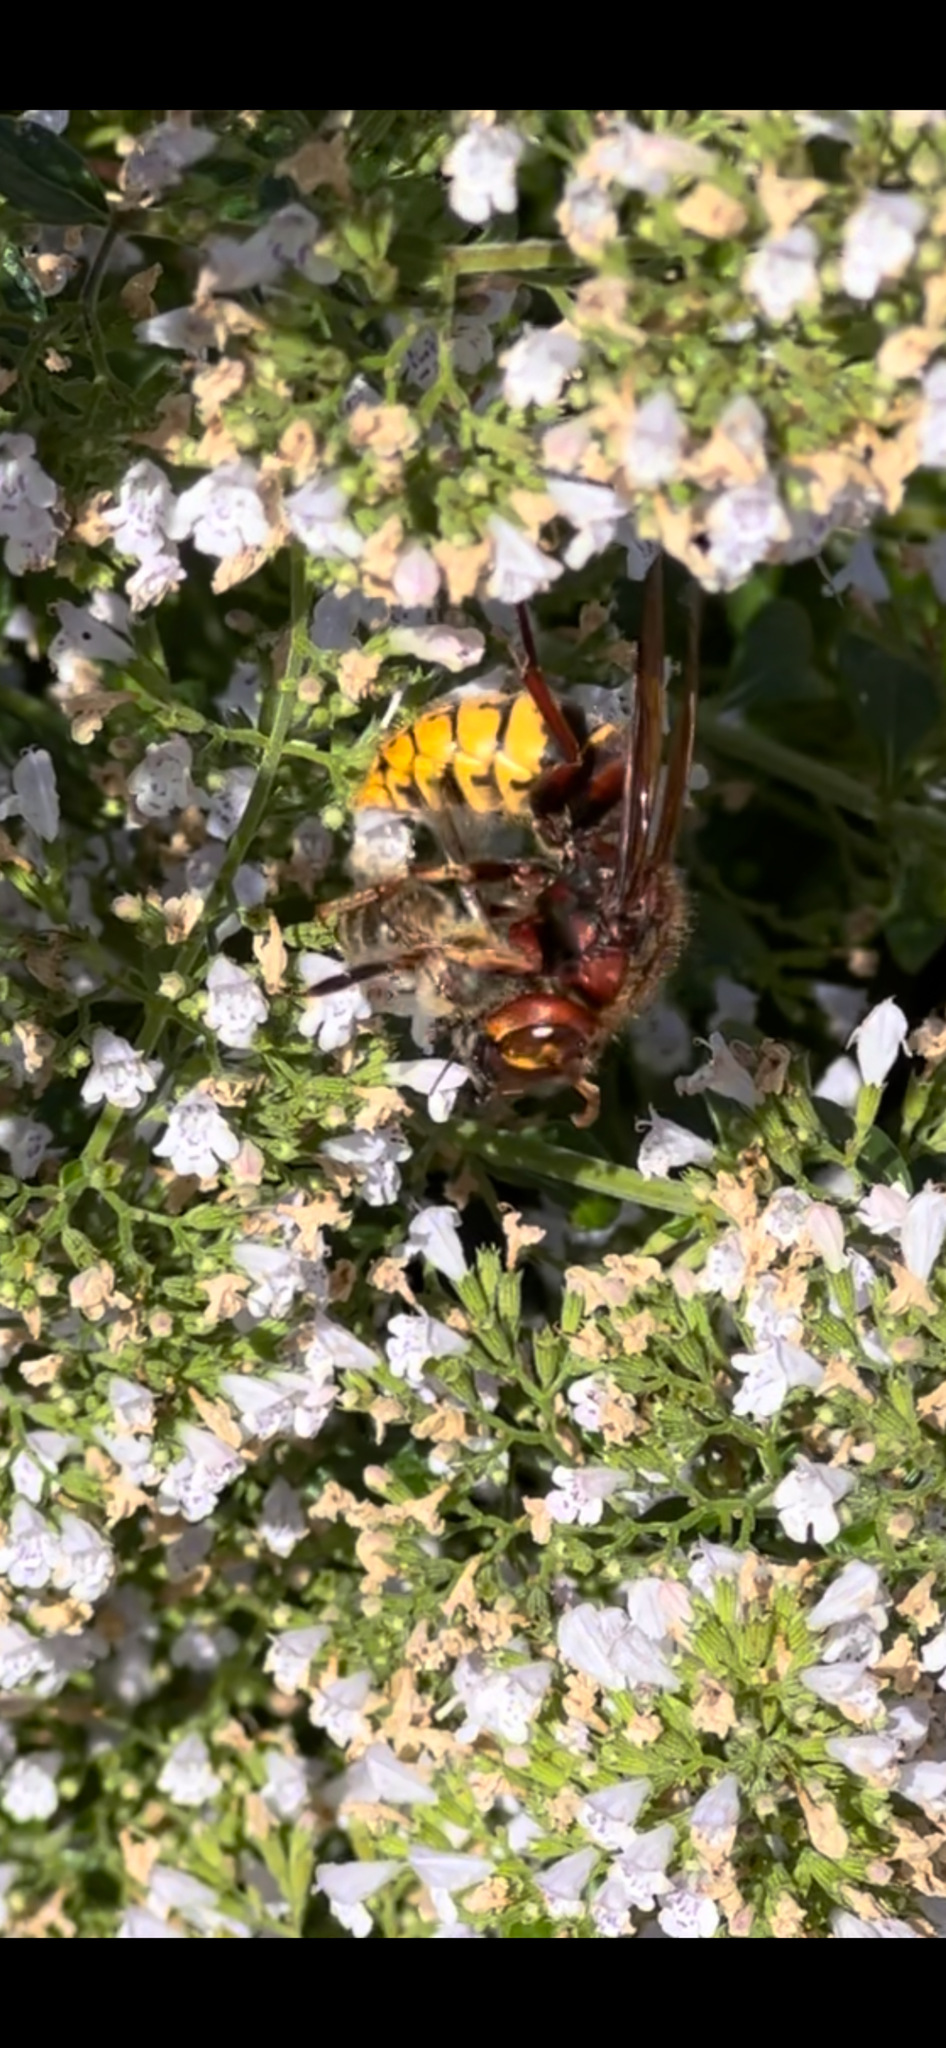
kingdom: Animalia
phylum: Arthropoda
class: Insecta
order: Hymenoptera
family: Vespidae
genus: Vespa
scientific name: Vespa crabro
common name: Hornet
